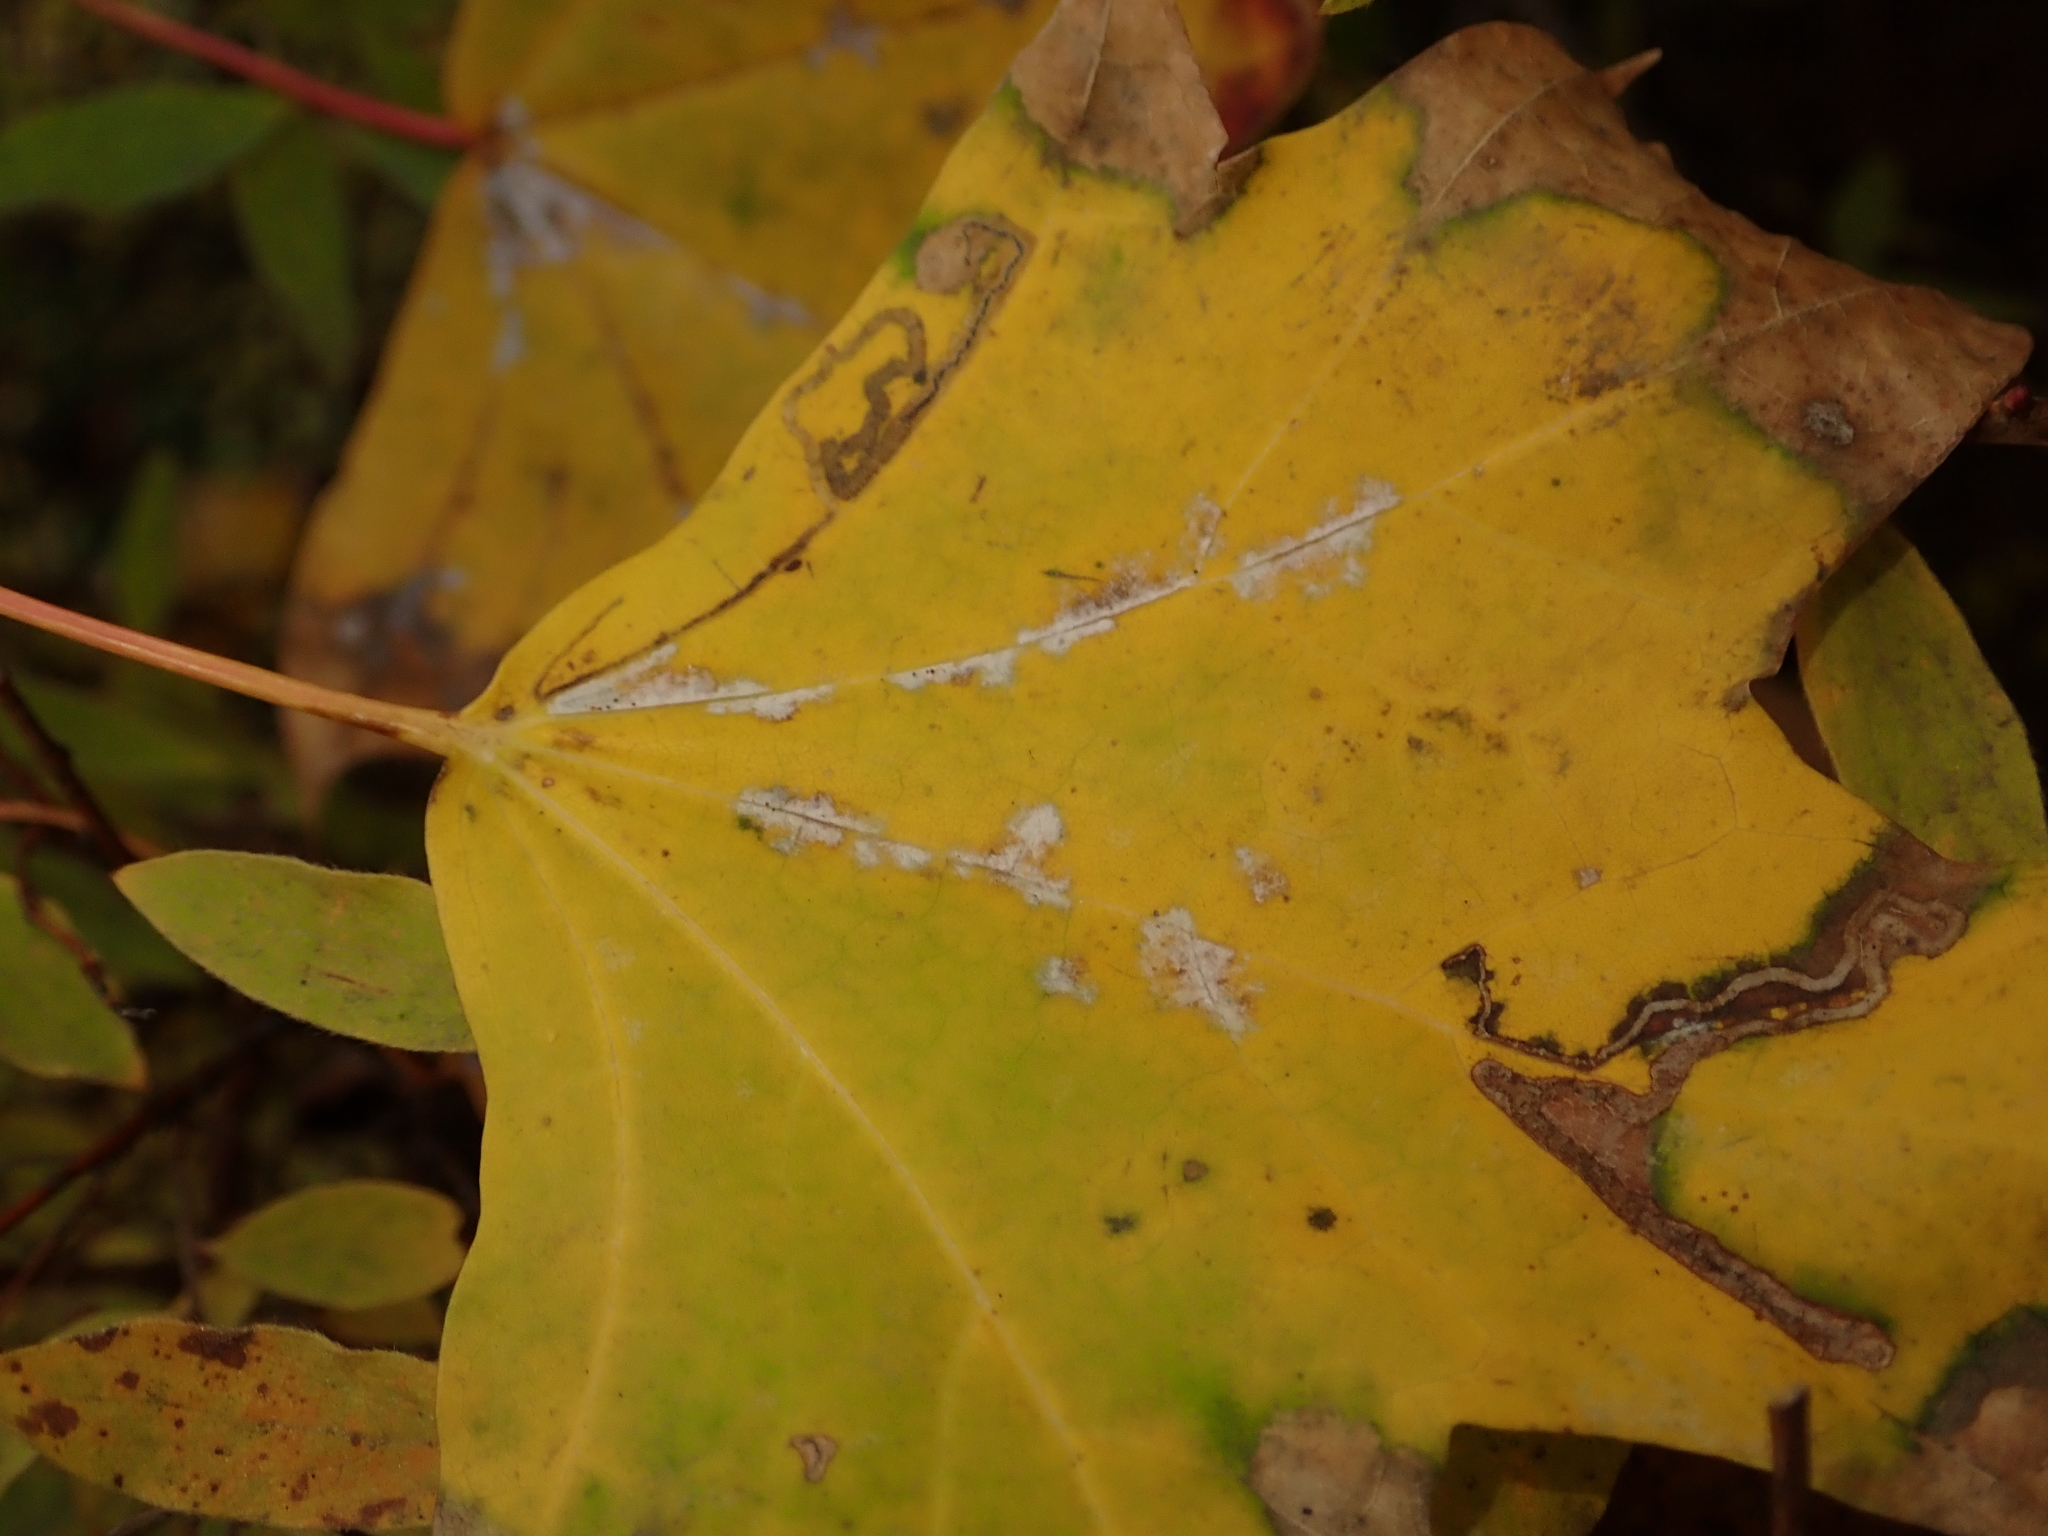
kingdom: Fungi
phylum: Ascomycota
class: Leotiomycetes
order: Helotiales
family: Erysiphaceae
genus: Sawadaea
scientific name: Sawadaea tulasnei
